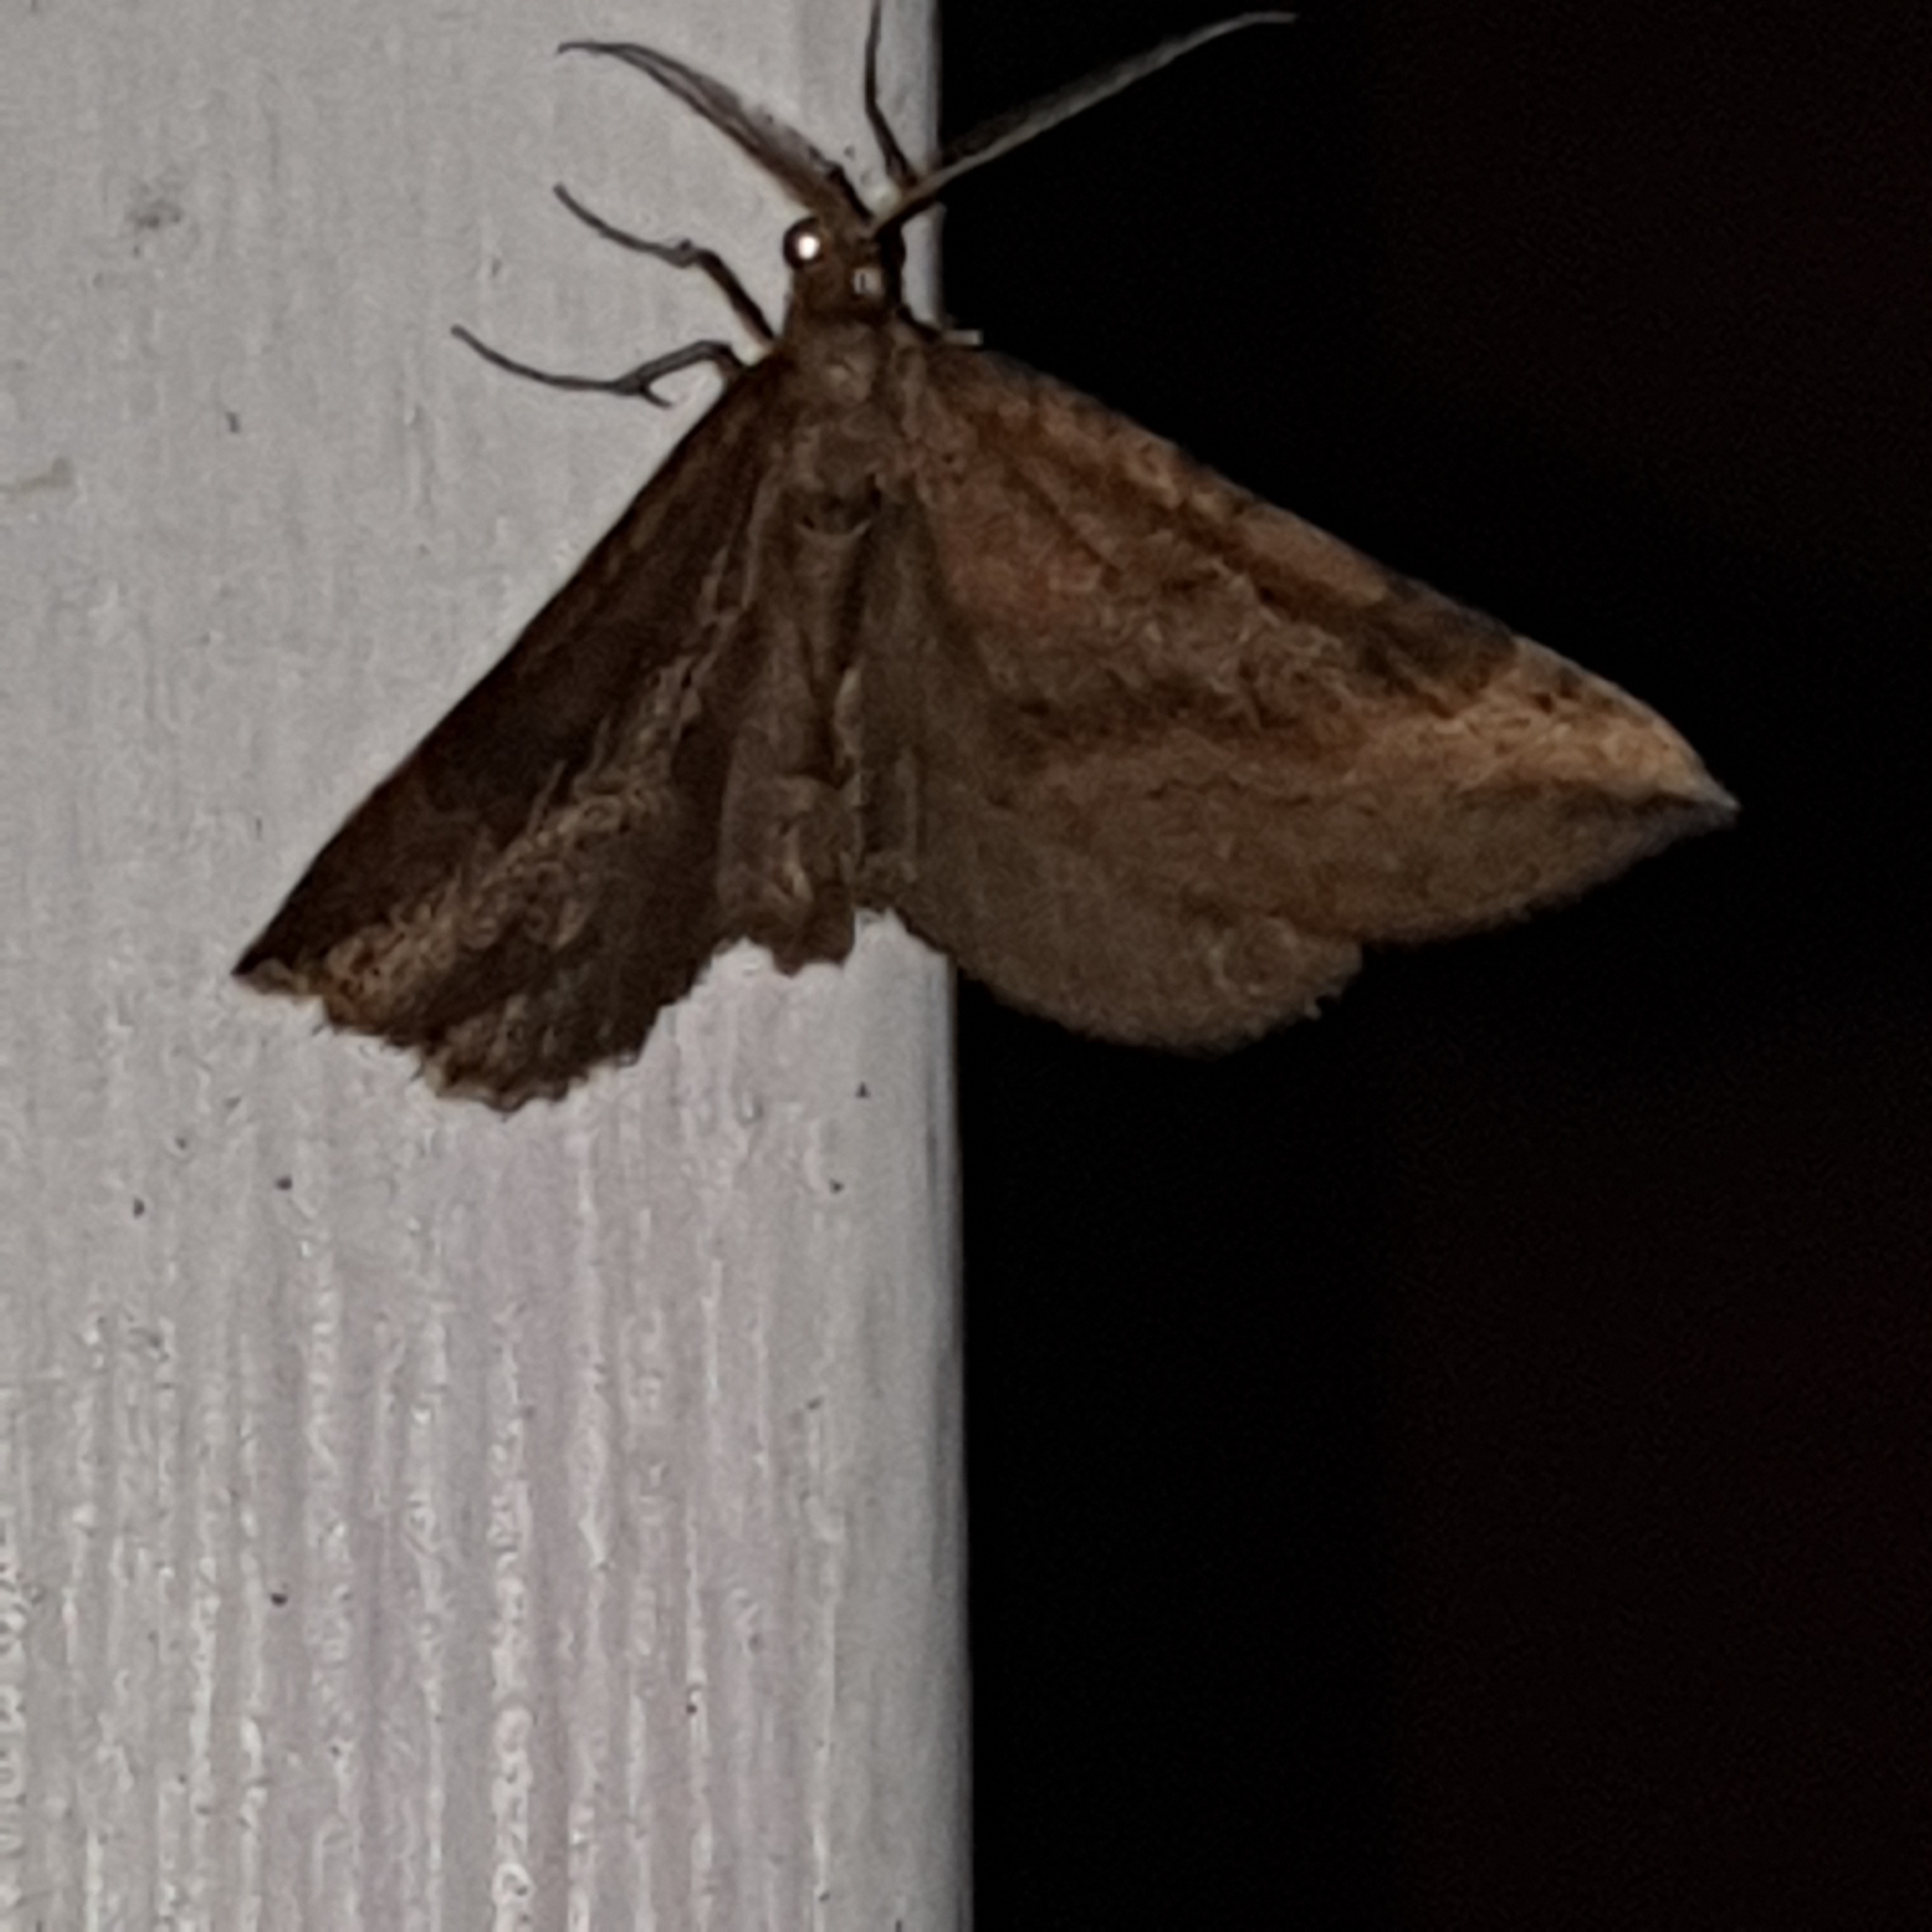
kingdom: Animalia
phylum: Arthropoda
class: Insecta
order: Lepidoptera
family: Geometridae
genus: Scotopteryx
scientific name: Scotopteryx chenopodiata
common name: Shaded broad-bar
